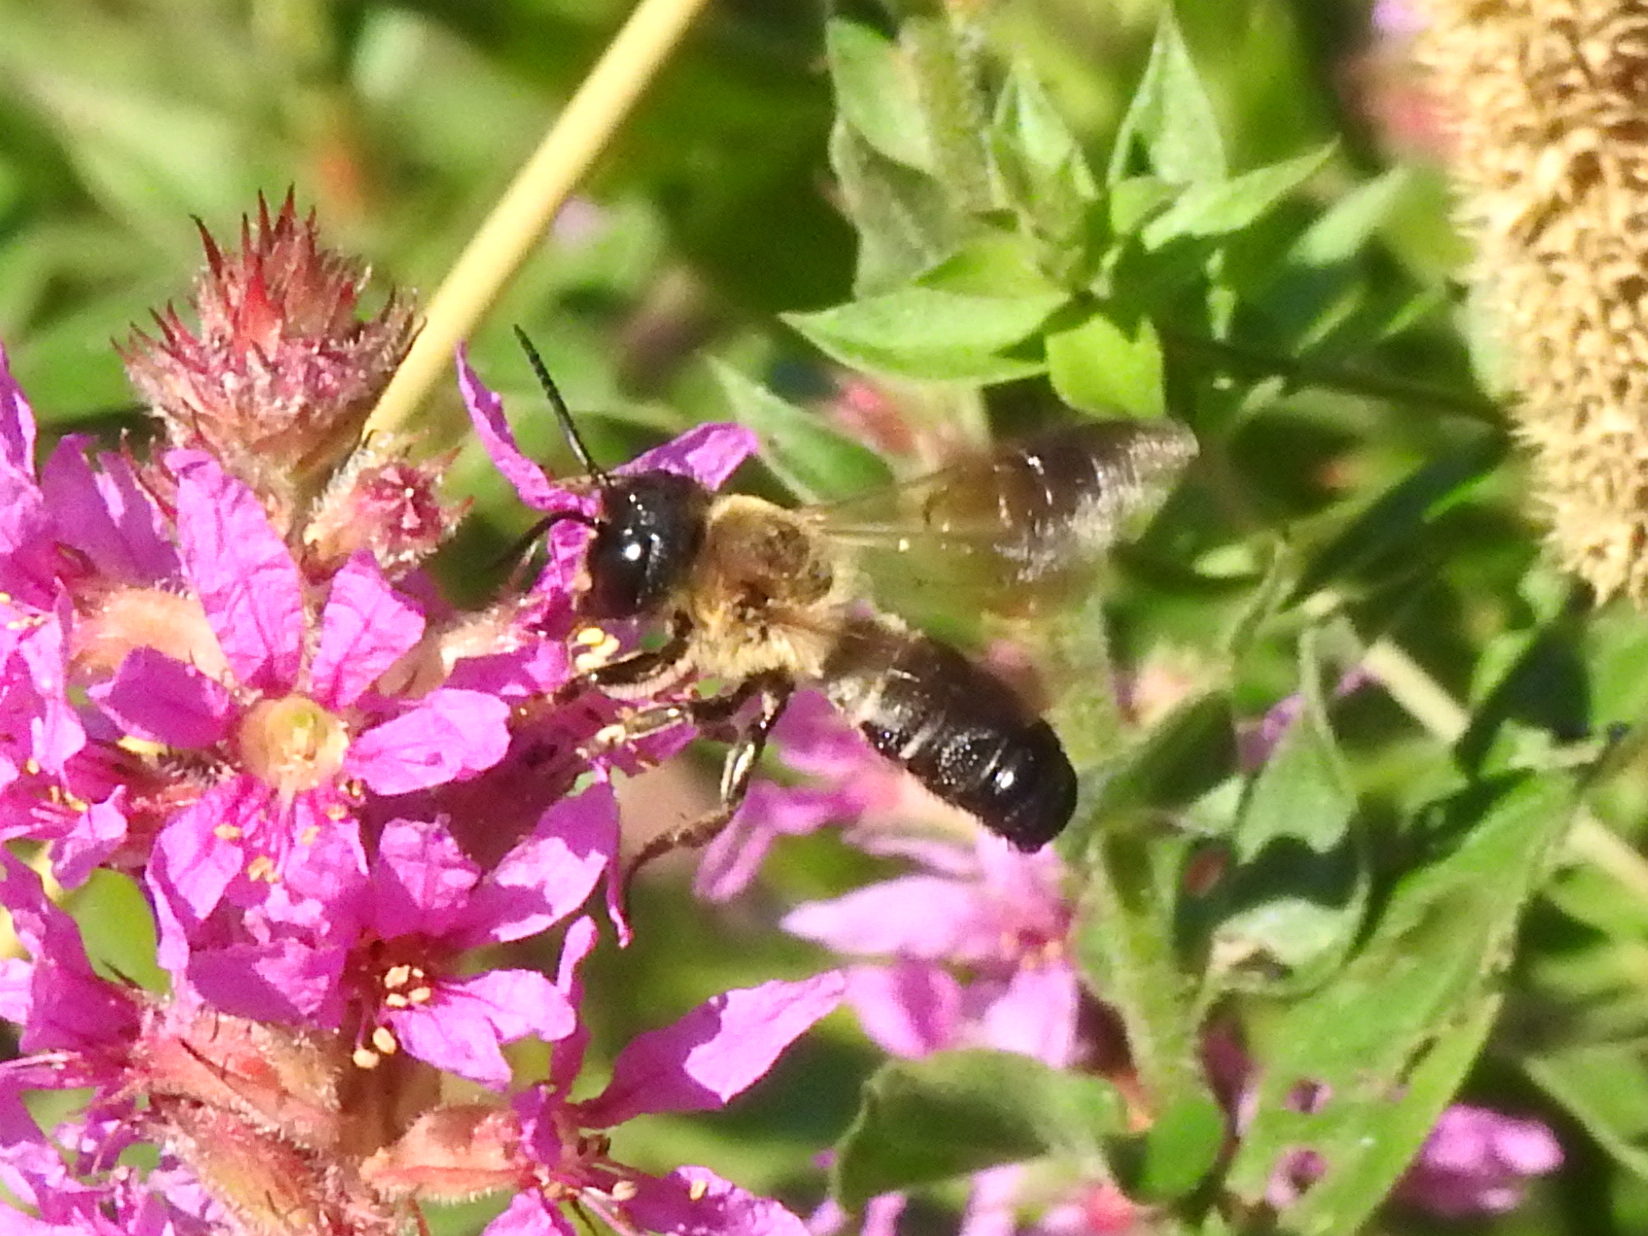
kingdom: Animalia
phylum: Arthropoda
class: Insecta
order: Hymenoptera
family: Megachilidae
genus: Megachile
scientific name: Megachile sculpturalis
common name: Sculptured resin bee
